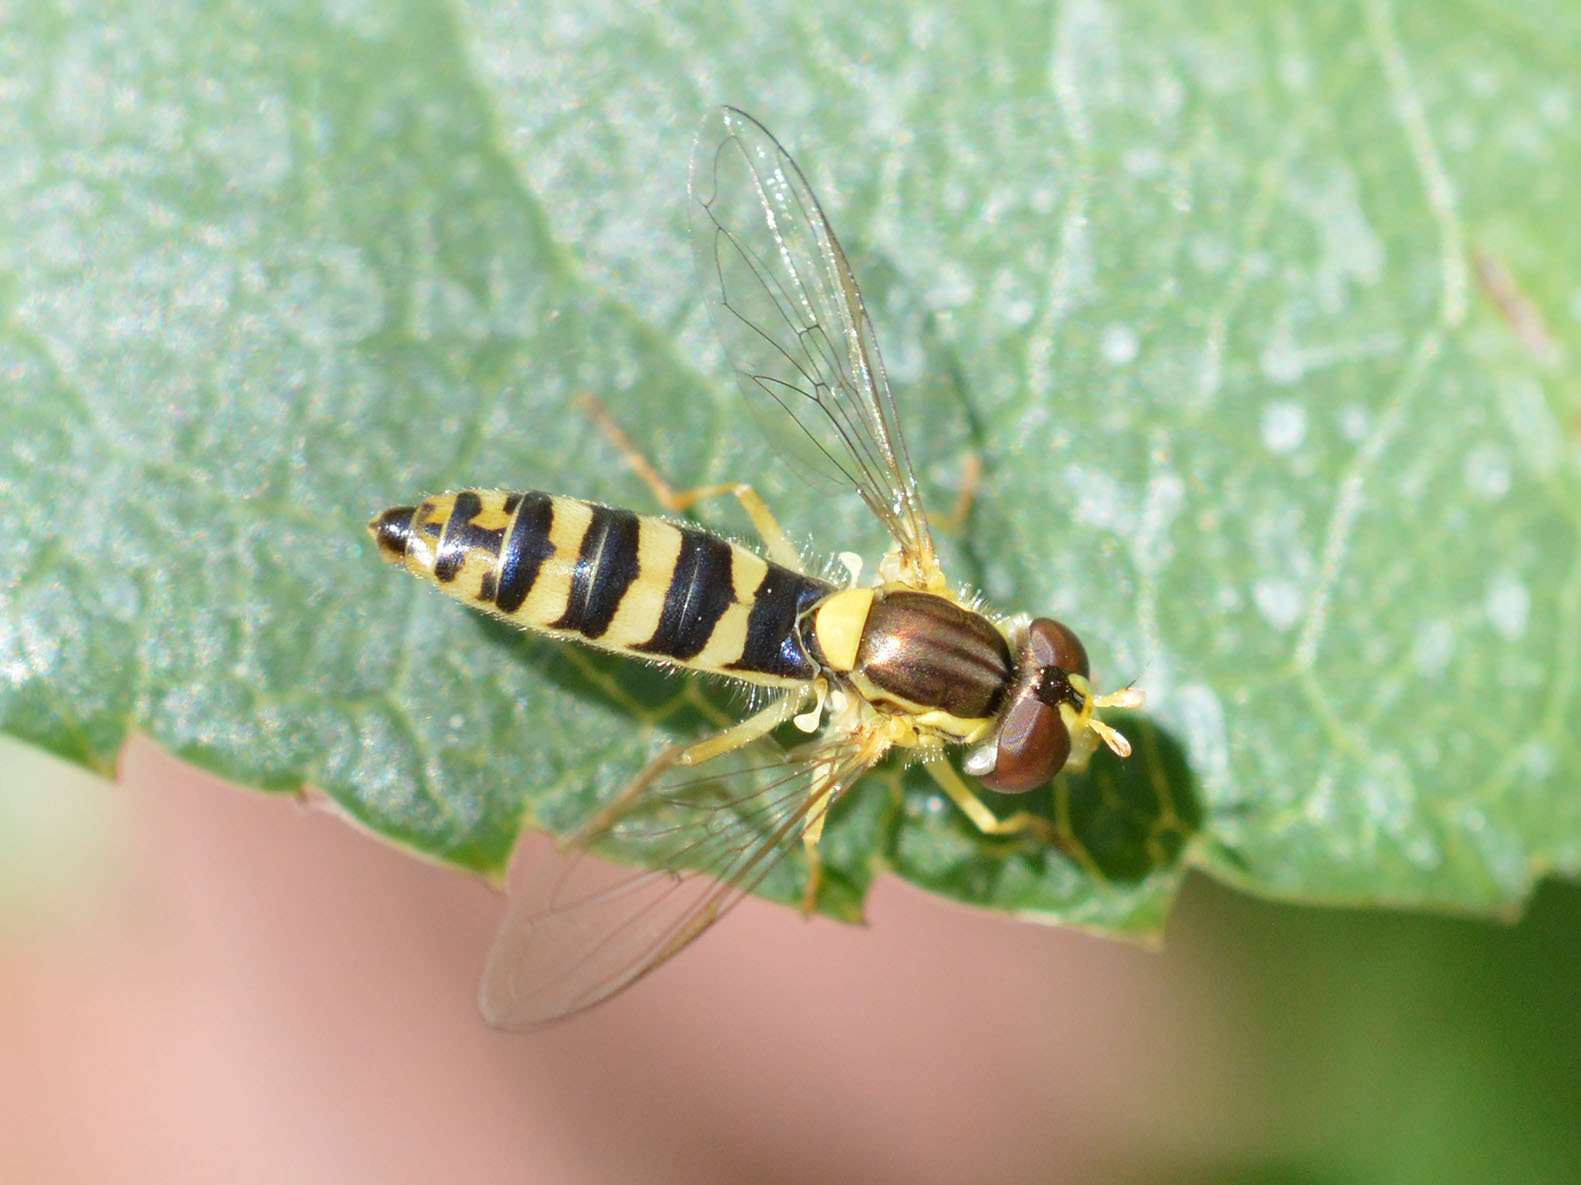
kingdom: Animalia
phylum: Arthropoda
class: Insecta
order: Diptera
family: Syrphidae
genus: Sphaerophoria
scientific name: Sphaerophoria
